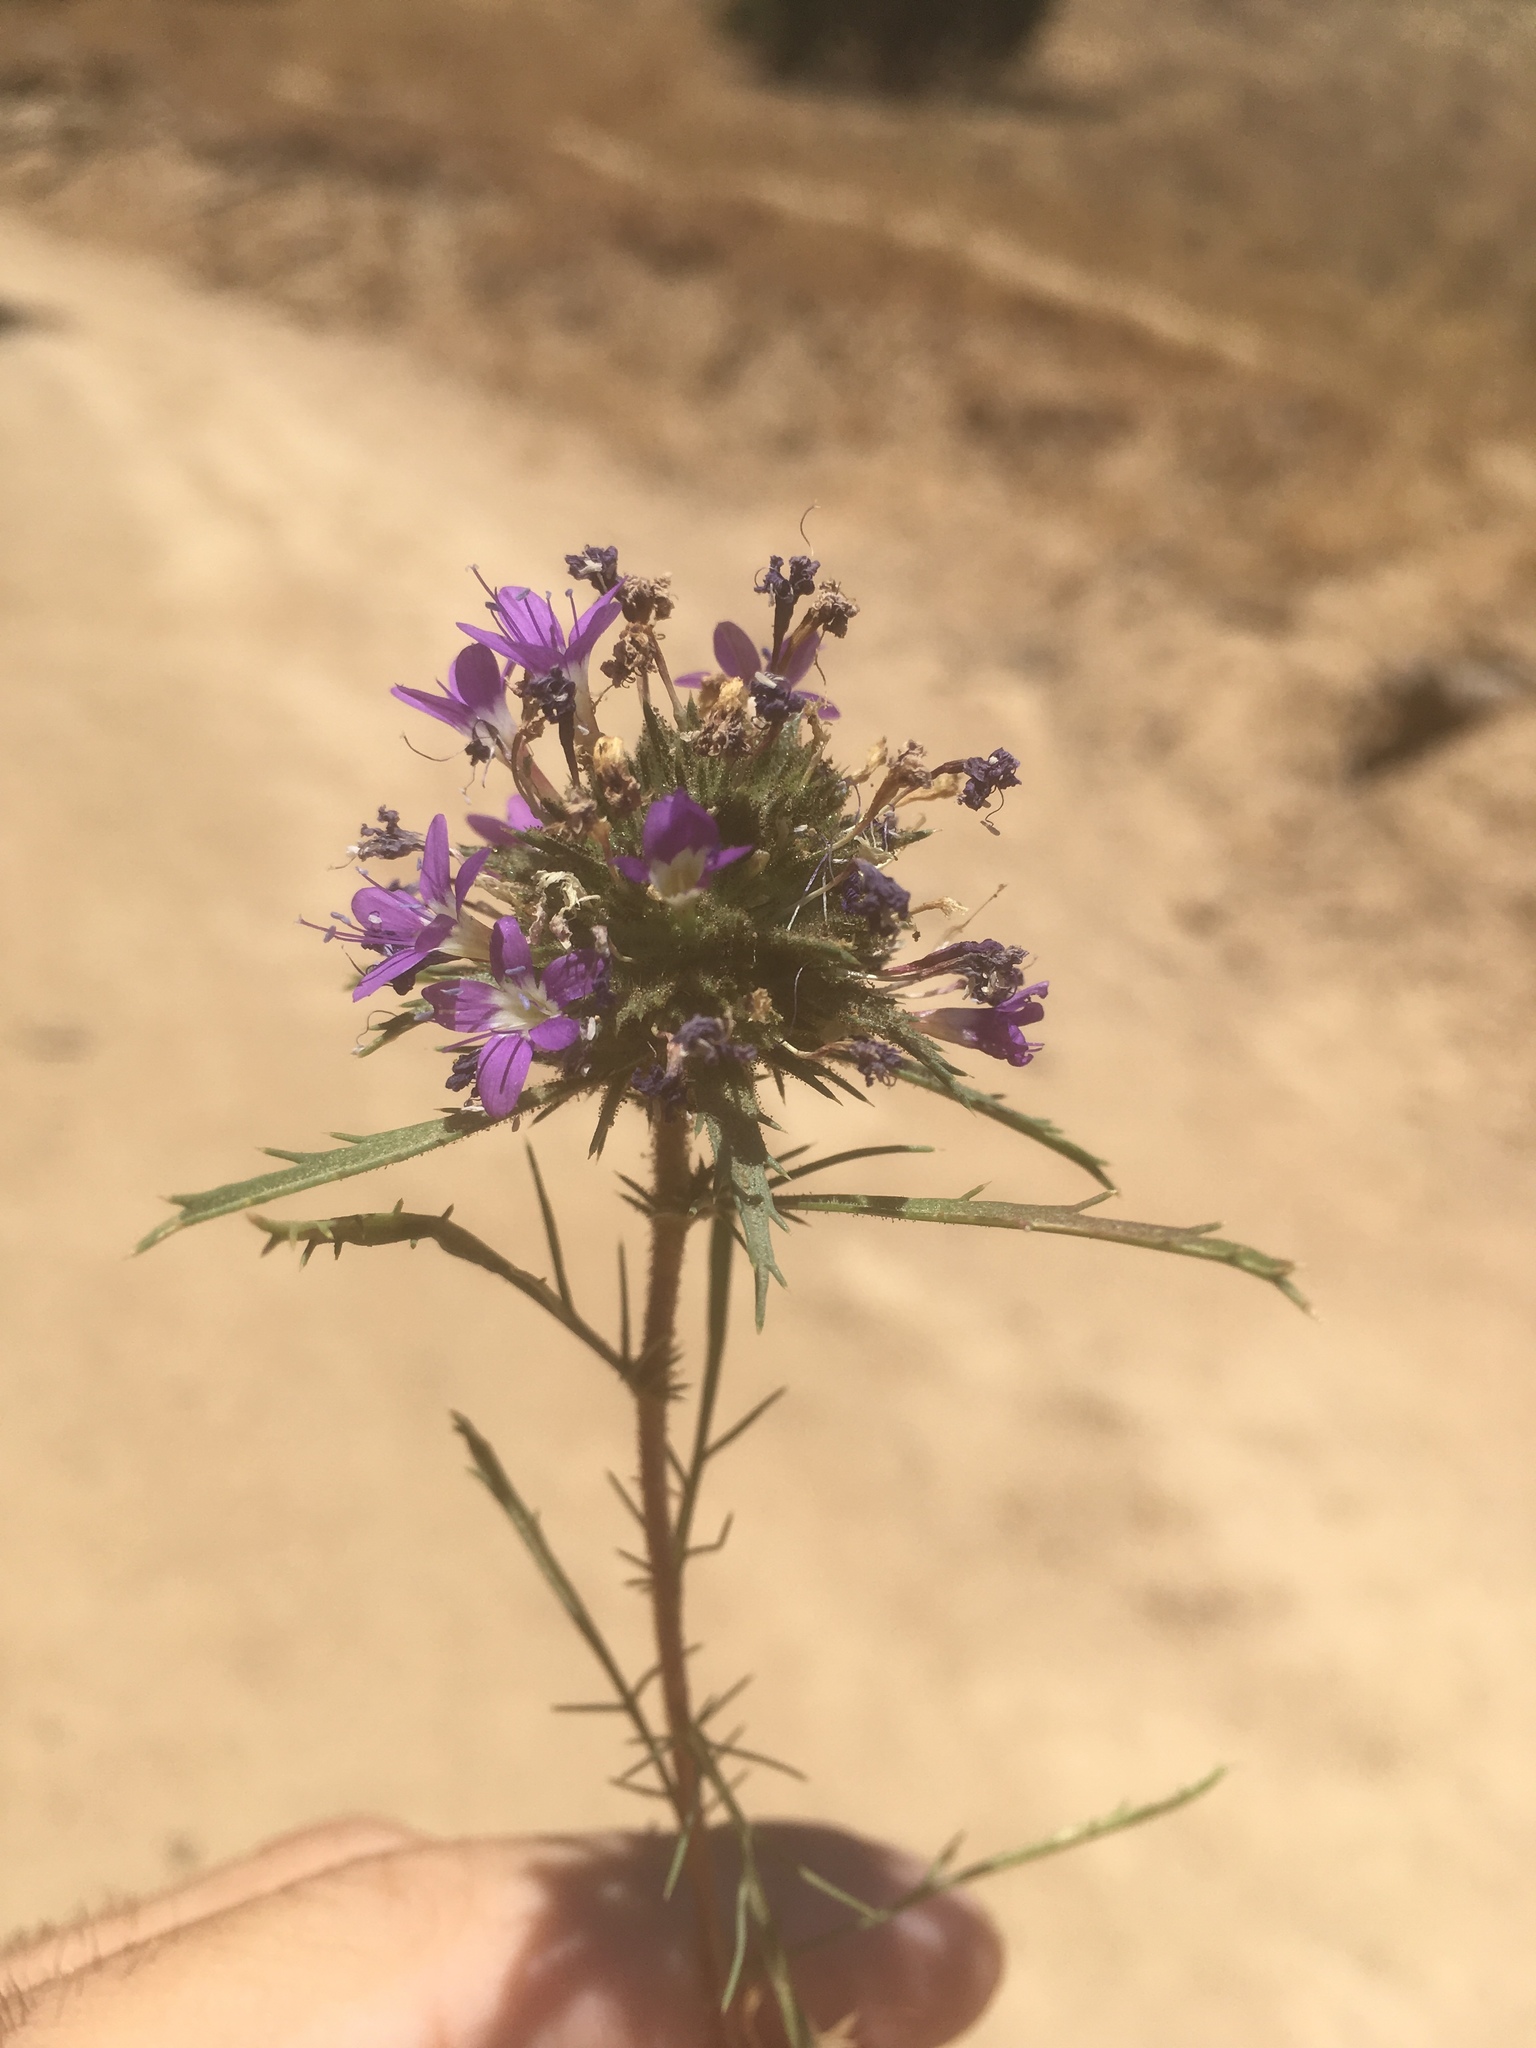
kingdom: Plantae
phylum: Tracheophyta
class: Magnoliopsida
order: Ericales
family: Polemoniaceae
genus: Navarretia
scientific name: Navarretia viscidula
